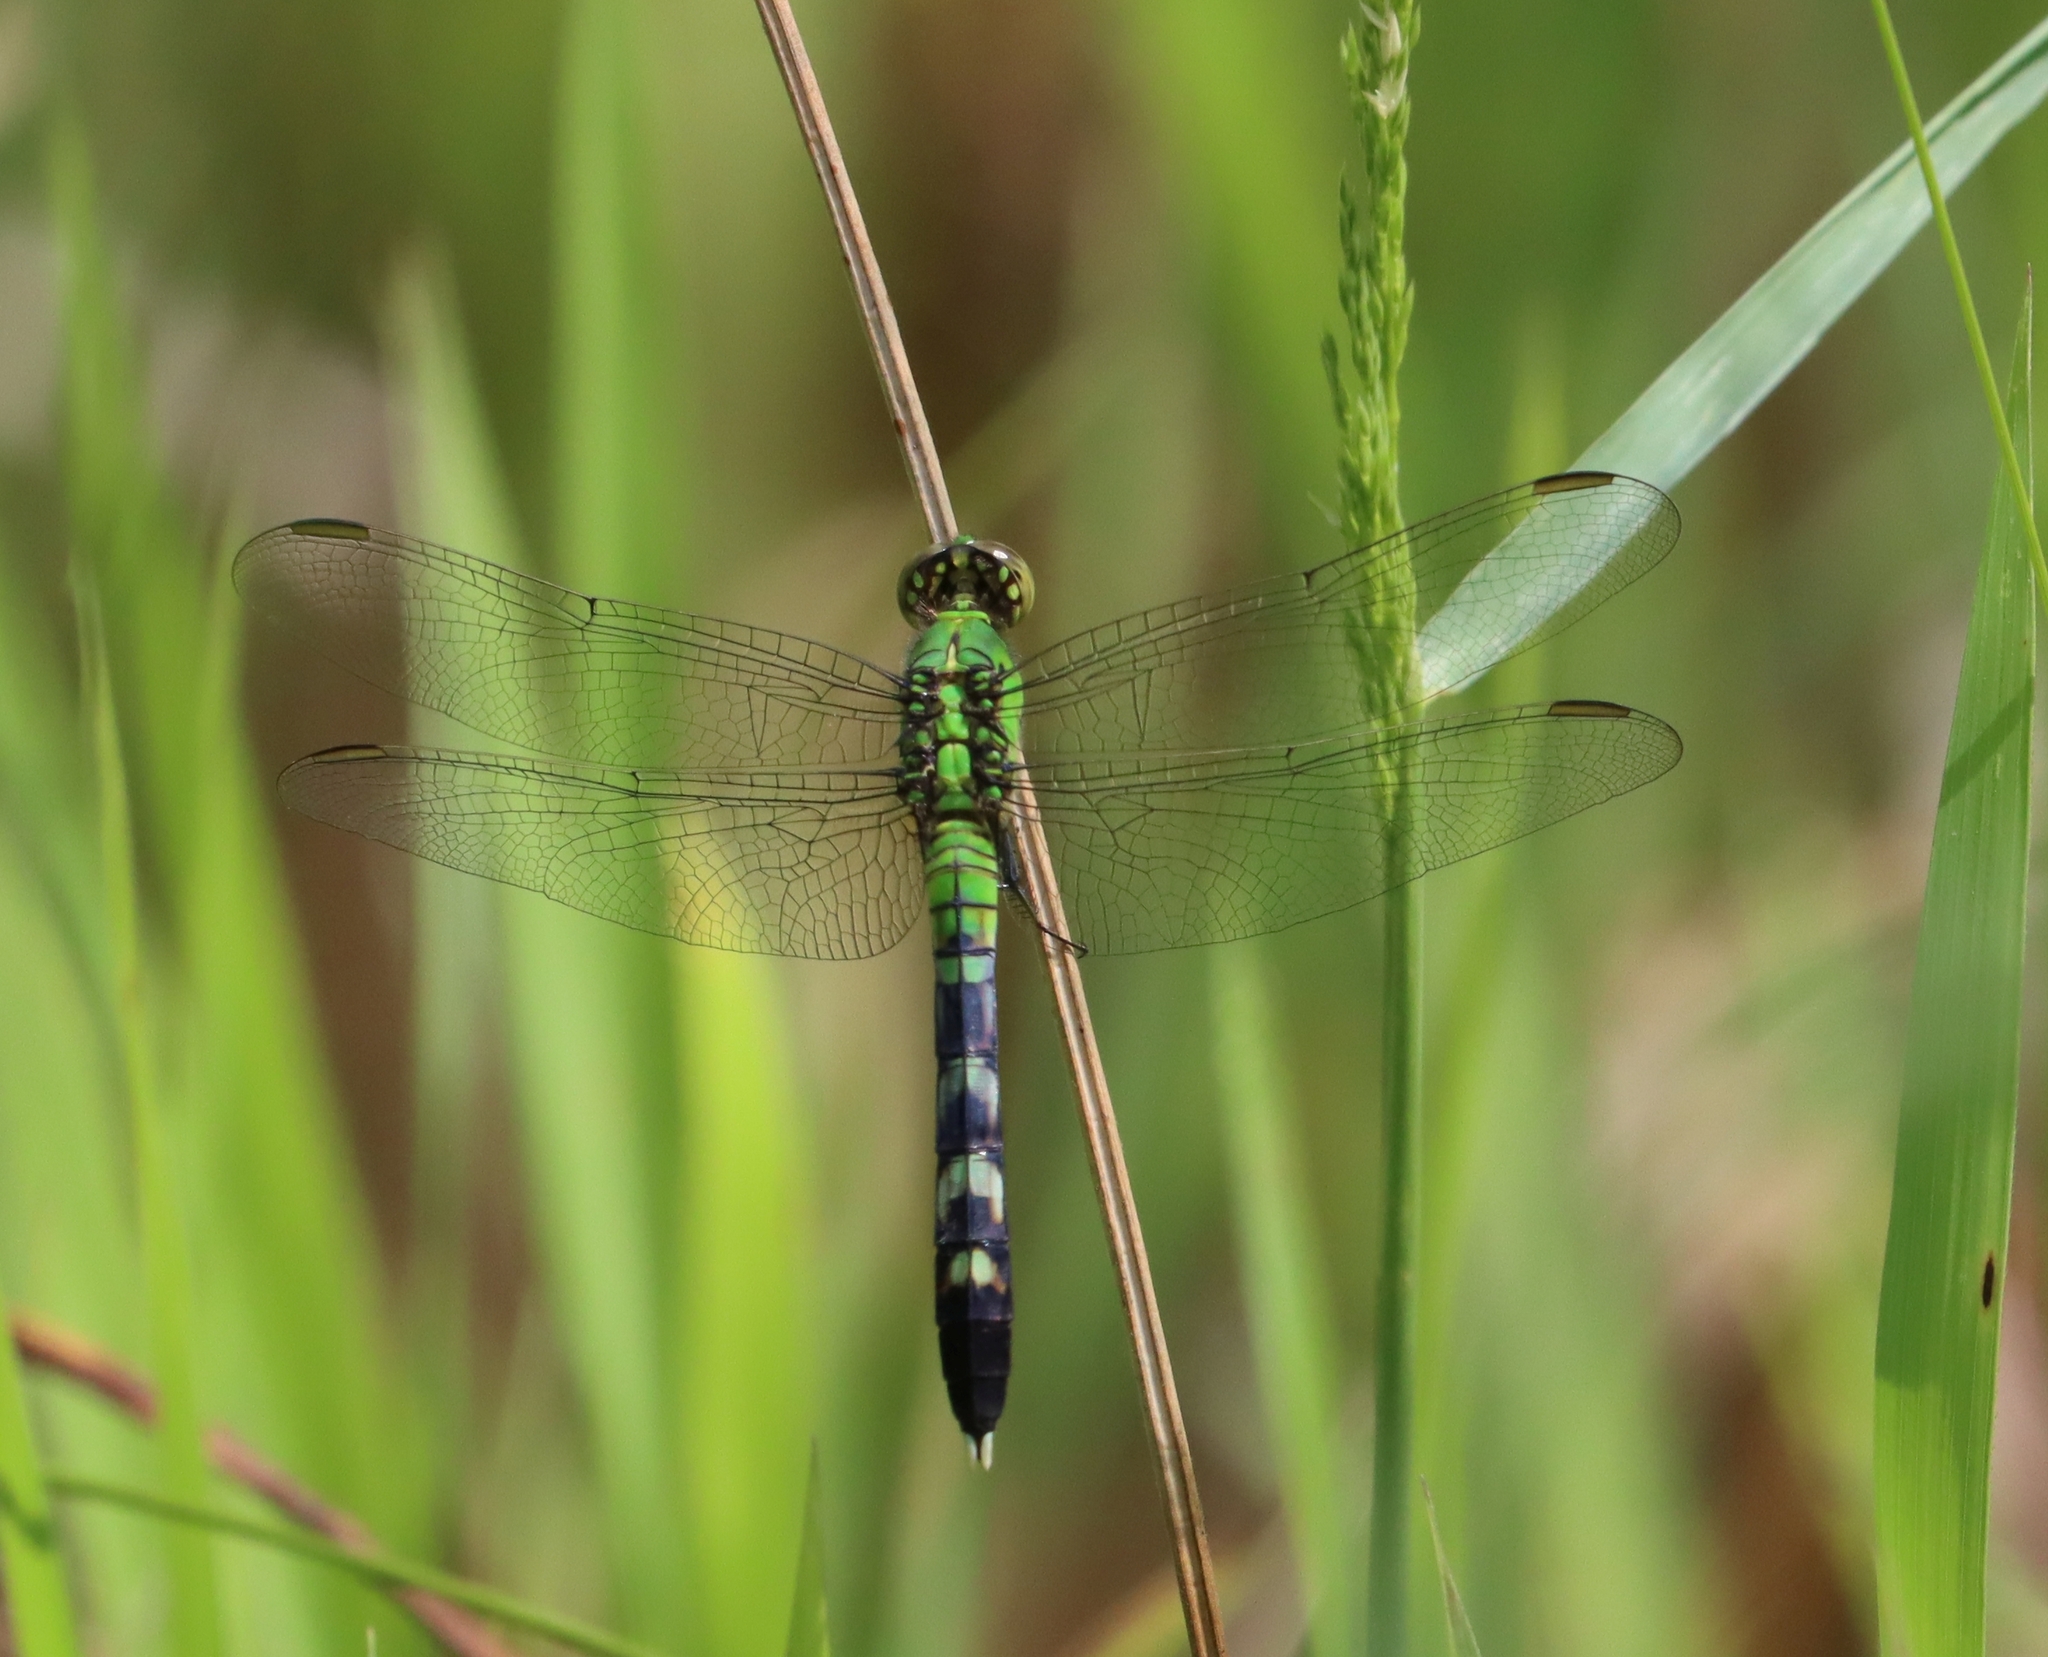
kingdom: Animalia
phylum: Arthropoda
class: Insecta
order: Odonata
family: Libellulidae
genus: Erythemis
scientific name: Erythemis simplicicollis
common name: Eastern pondhawk
